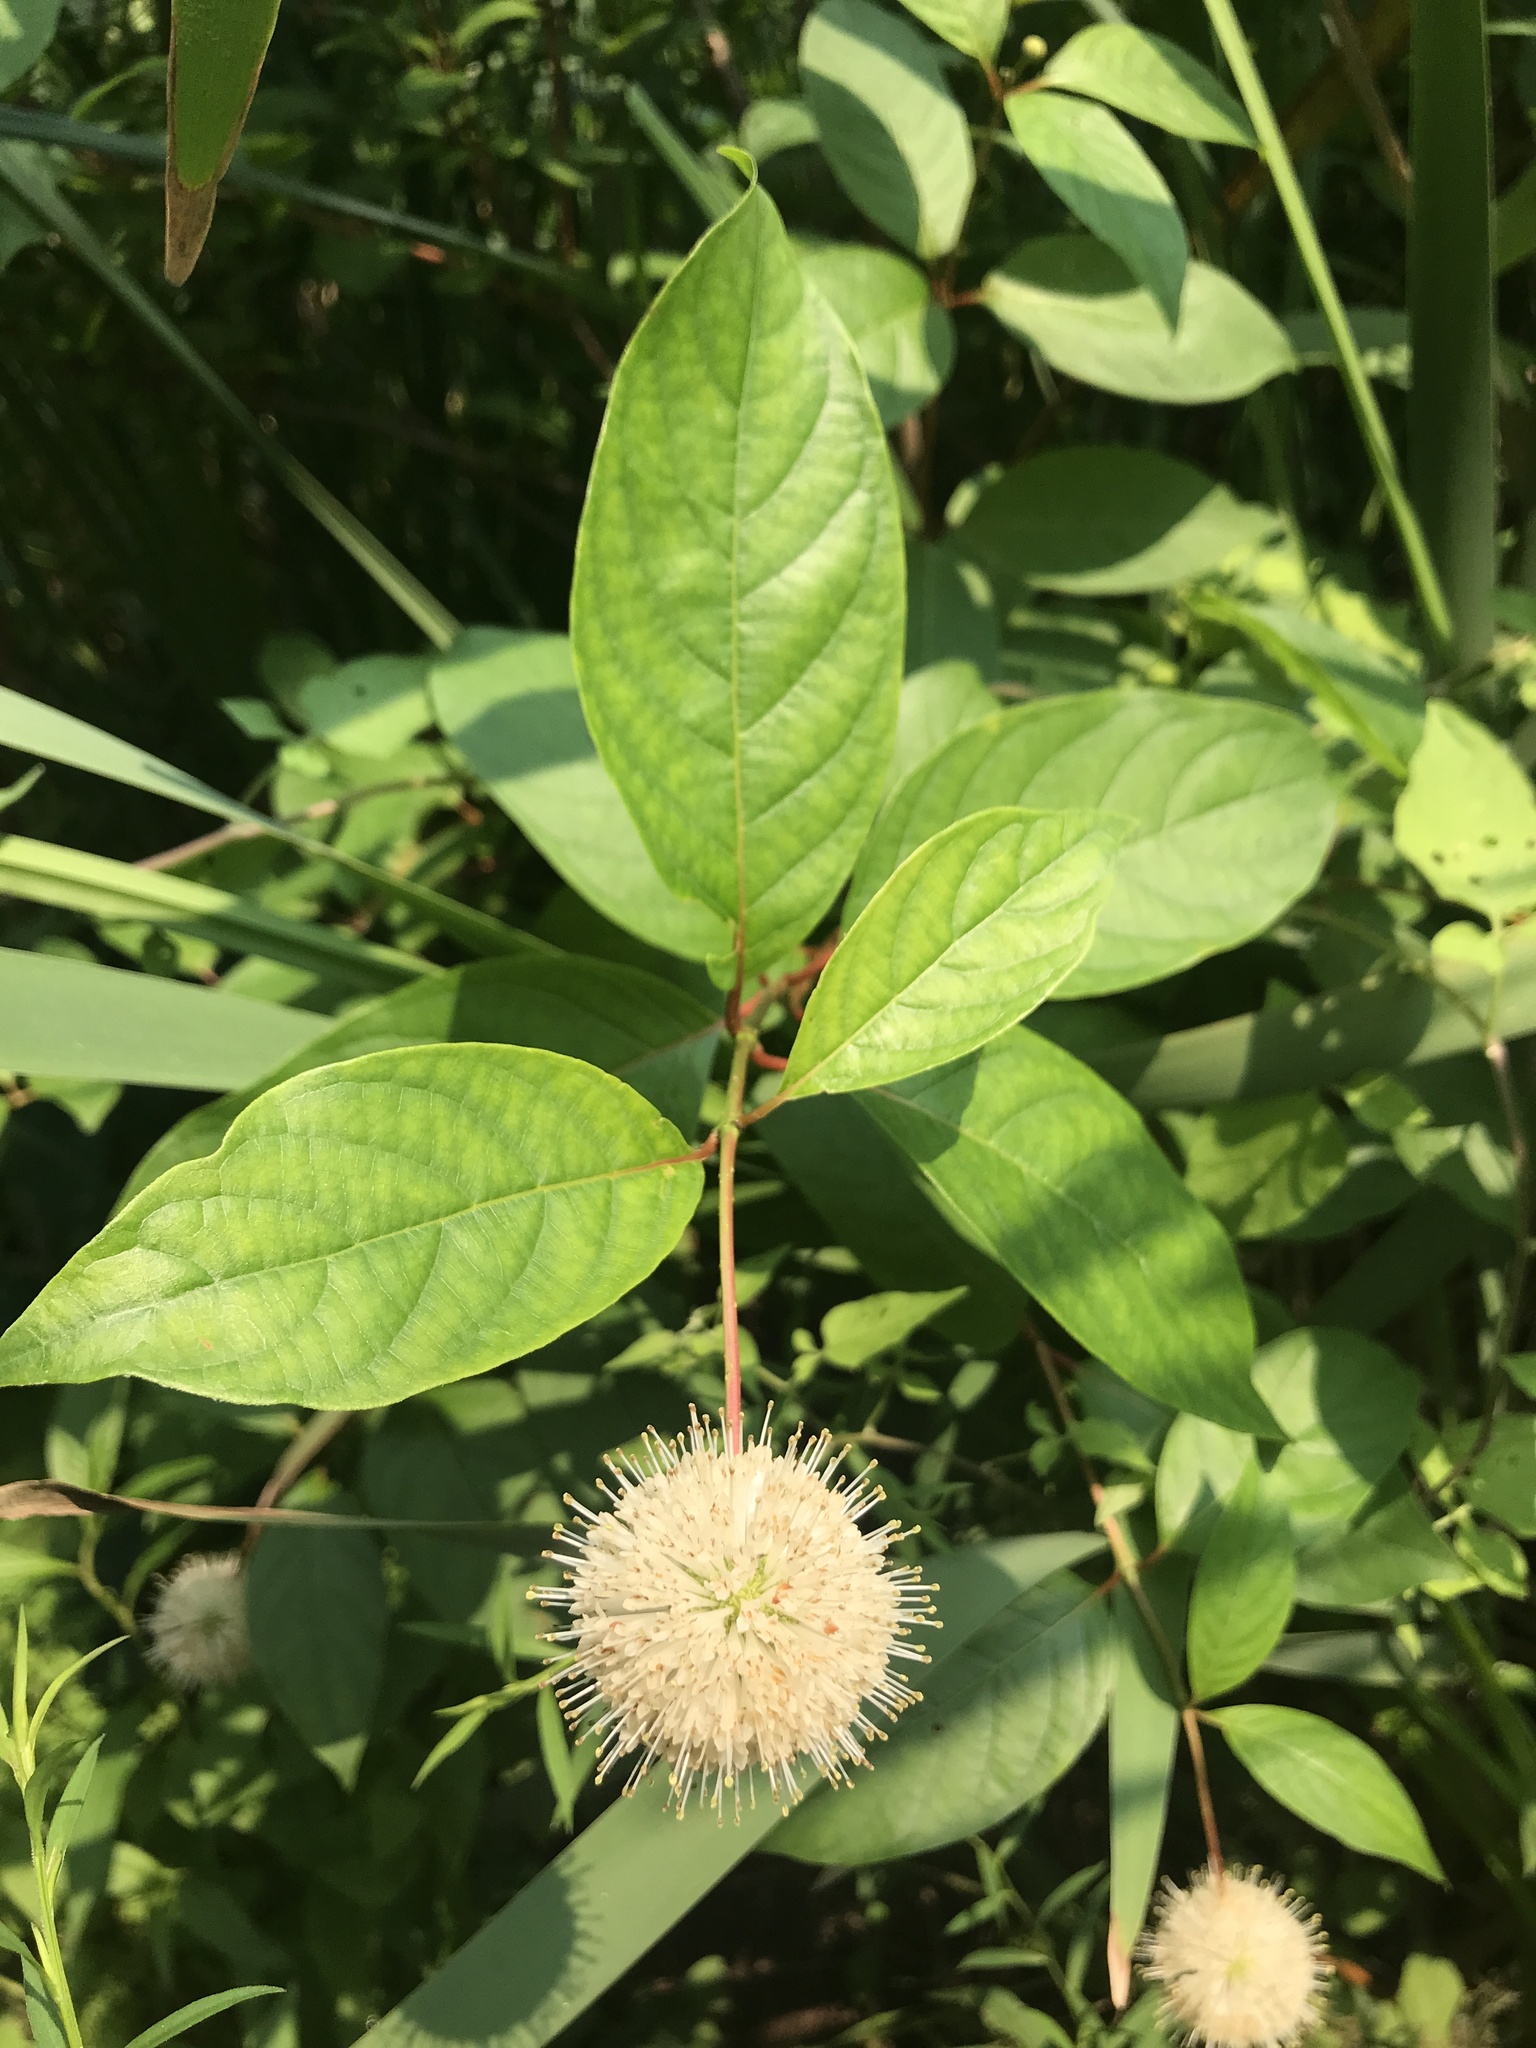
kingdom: Plantae
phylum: Tracheophyta
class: Magnoliopsida
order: Gentianales
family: Rubiaceae
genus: Cephalanthus
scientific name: Cephalanthus occidentalis
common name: Button-willow
